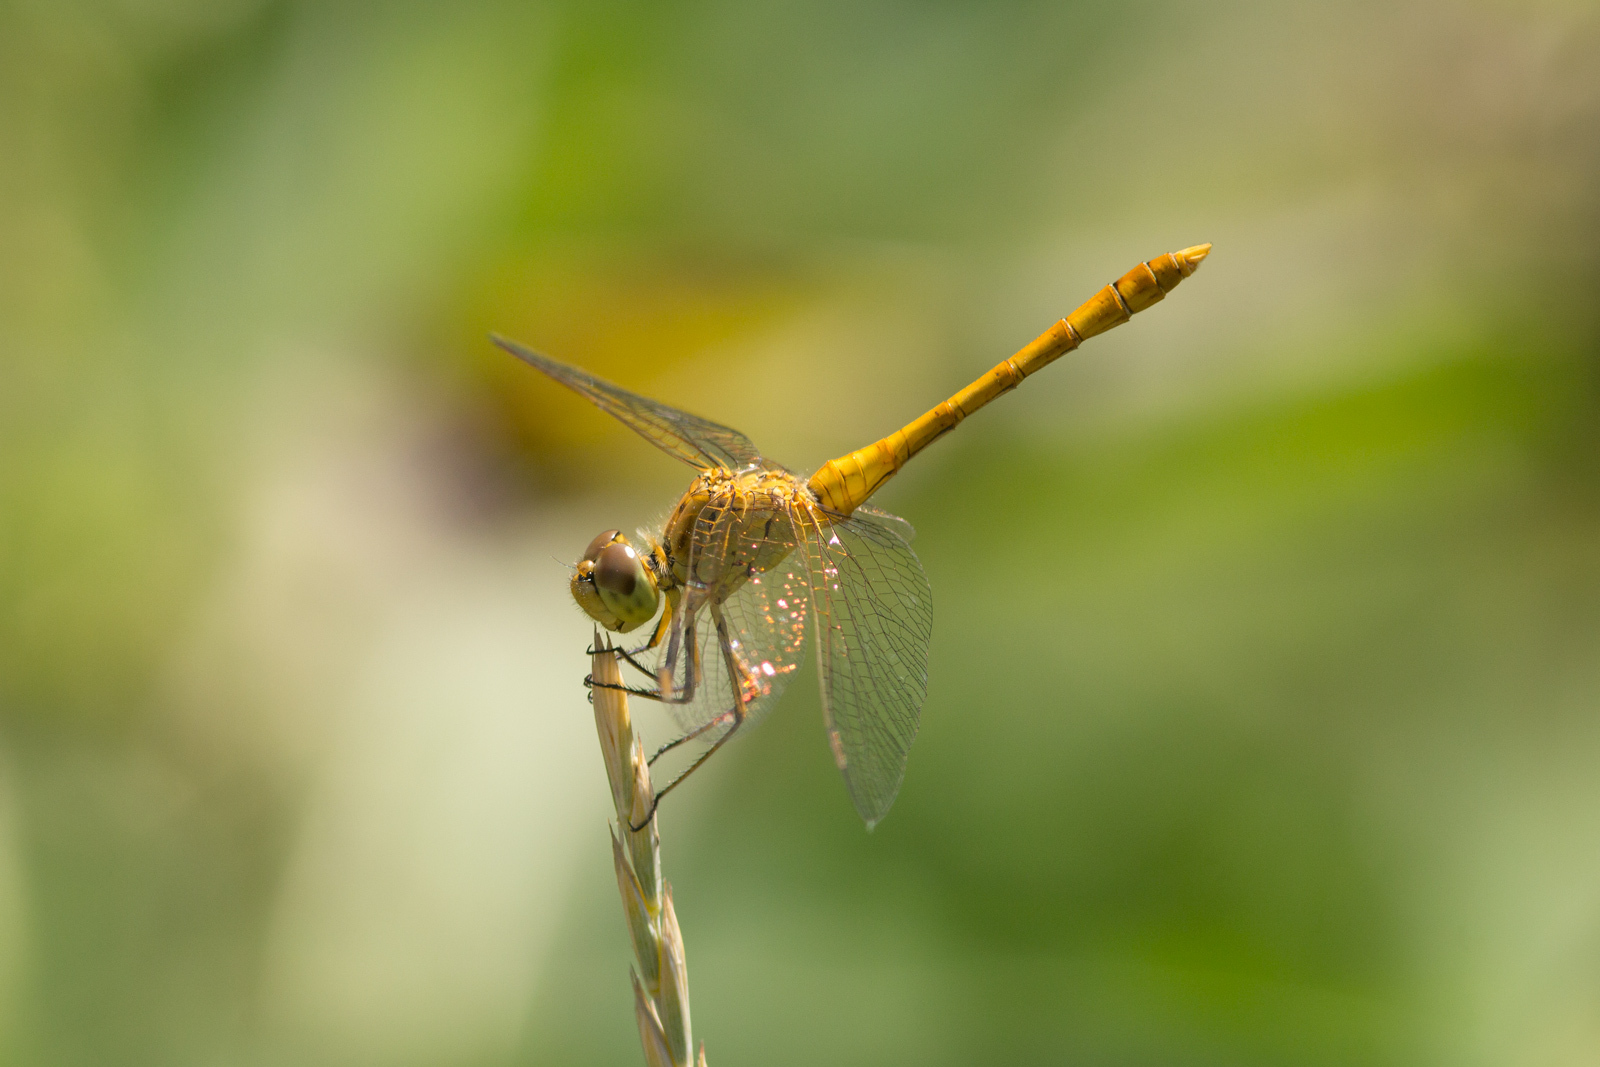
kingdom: Animalia
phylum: Arthropoda
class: Insecta
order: Odonata
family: Libellulidae
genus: Sympetrum
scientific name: Sympetrum meridionale
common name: Southern darter
